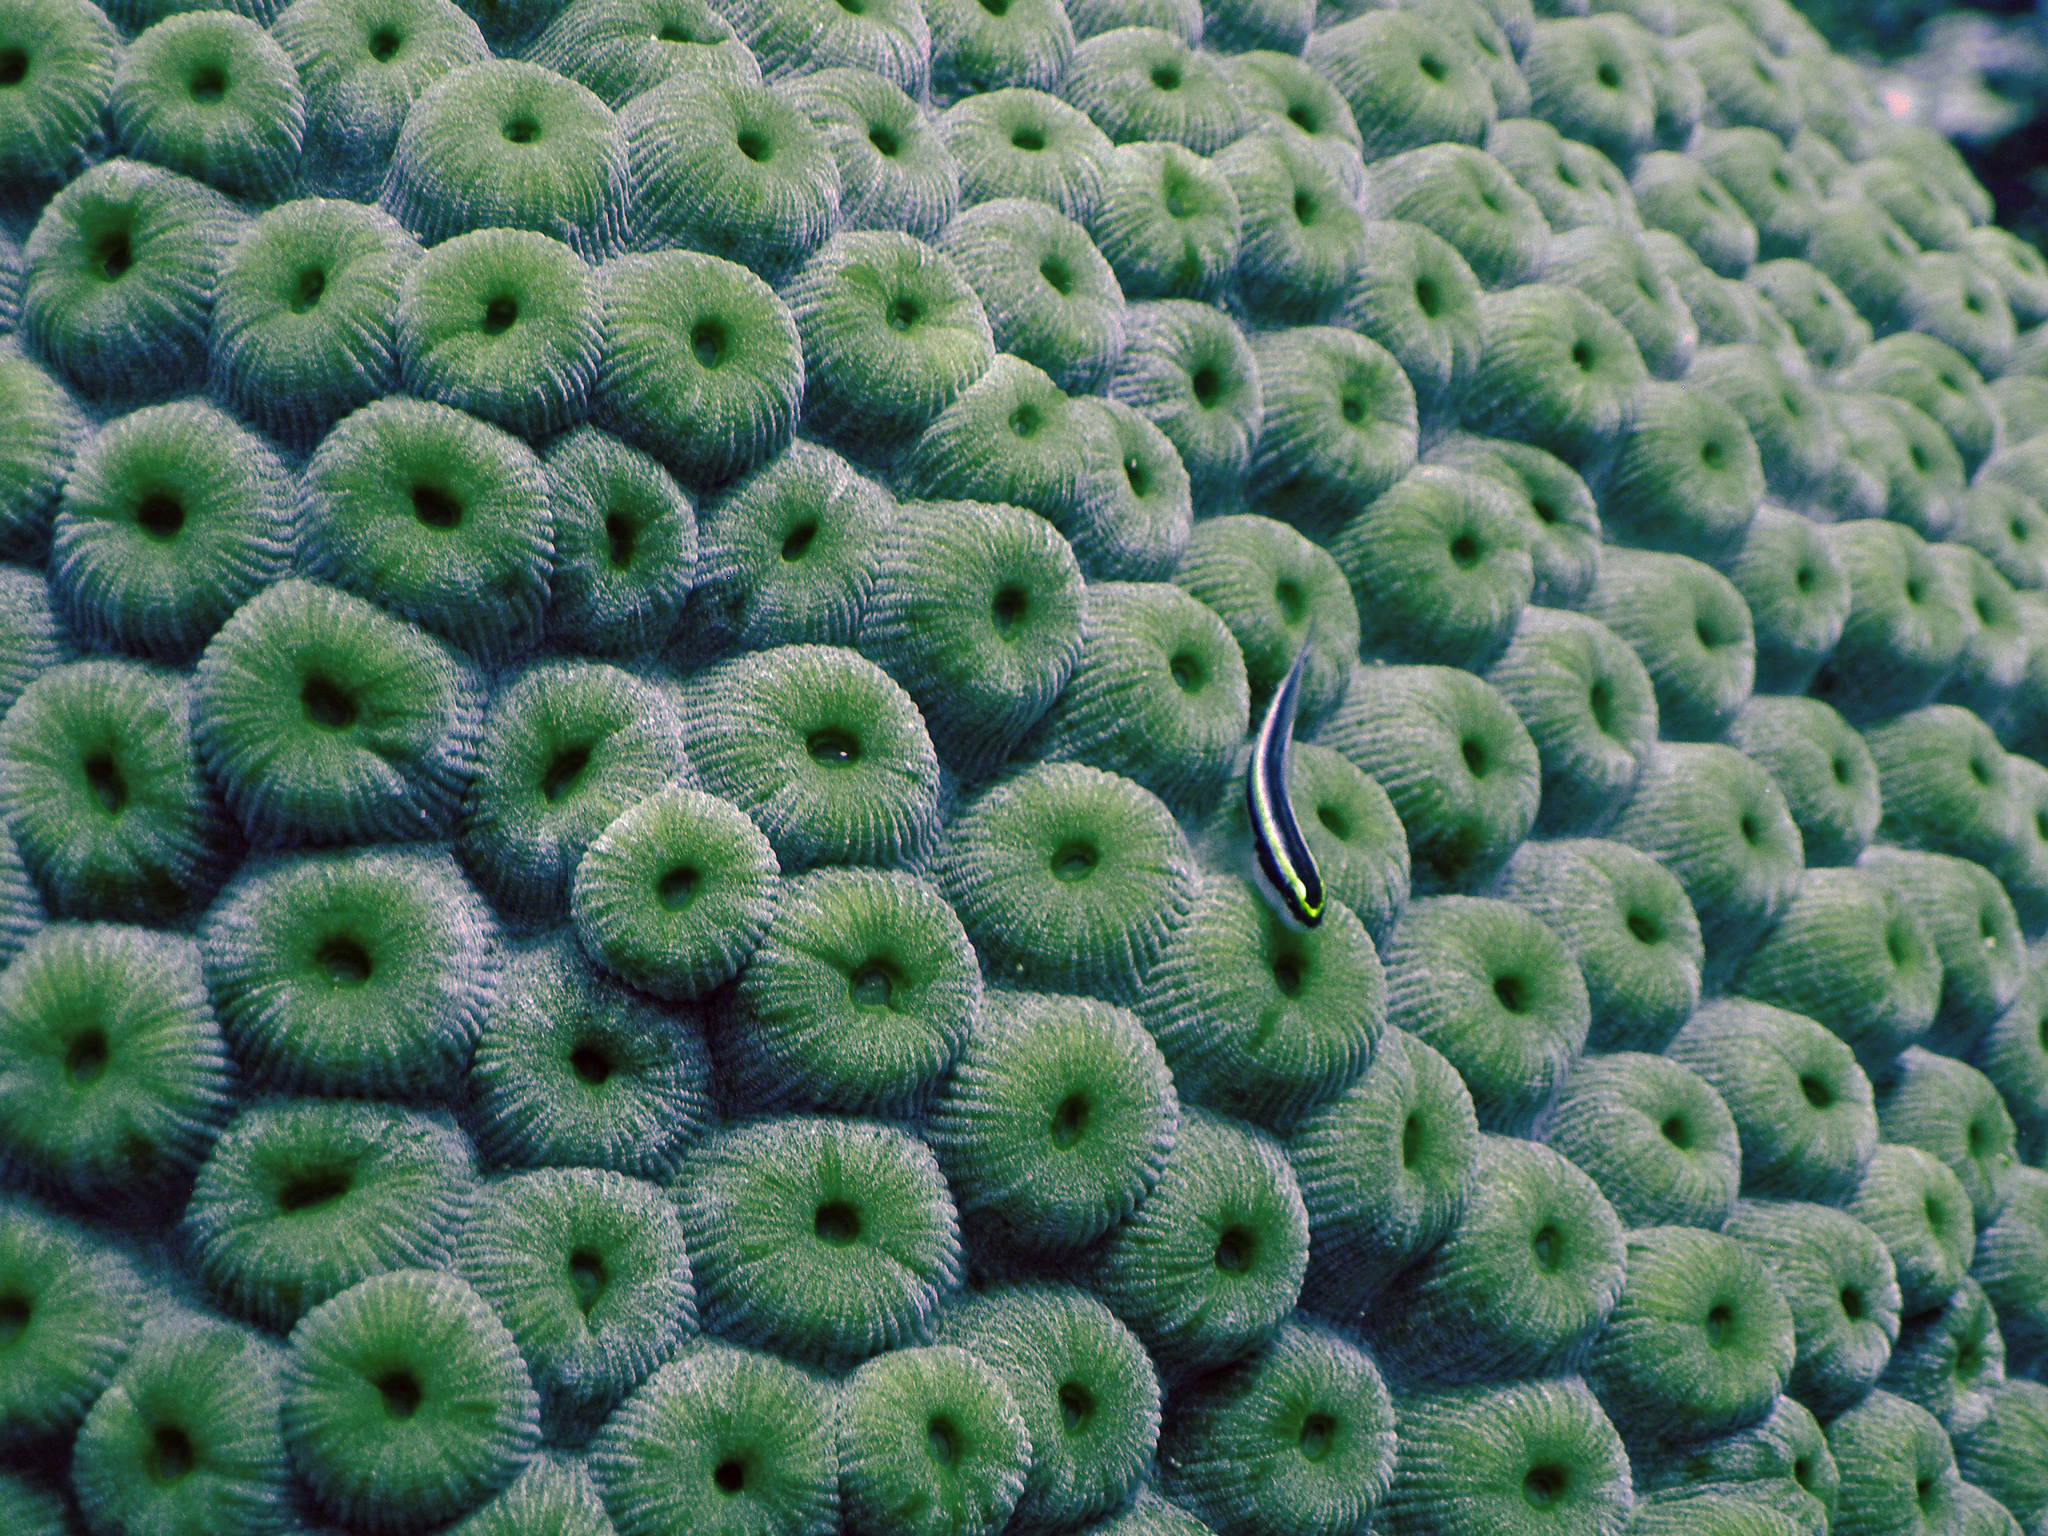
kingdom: Animalia
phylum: Cnidaria
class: Anthozoa
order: Scleractinia
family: Montastraeidae
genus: Montastraea
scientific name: Montastraea cavernosa
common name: Great star coral
